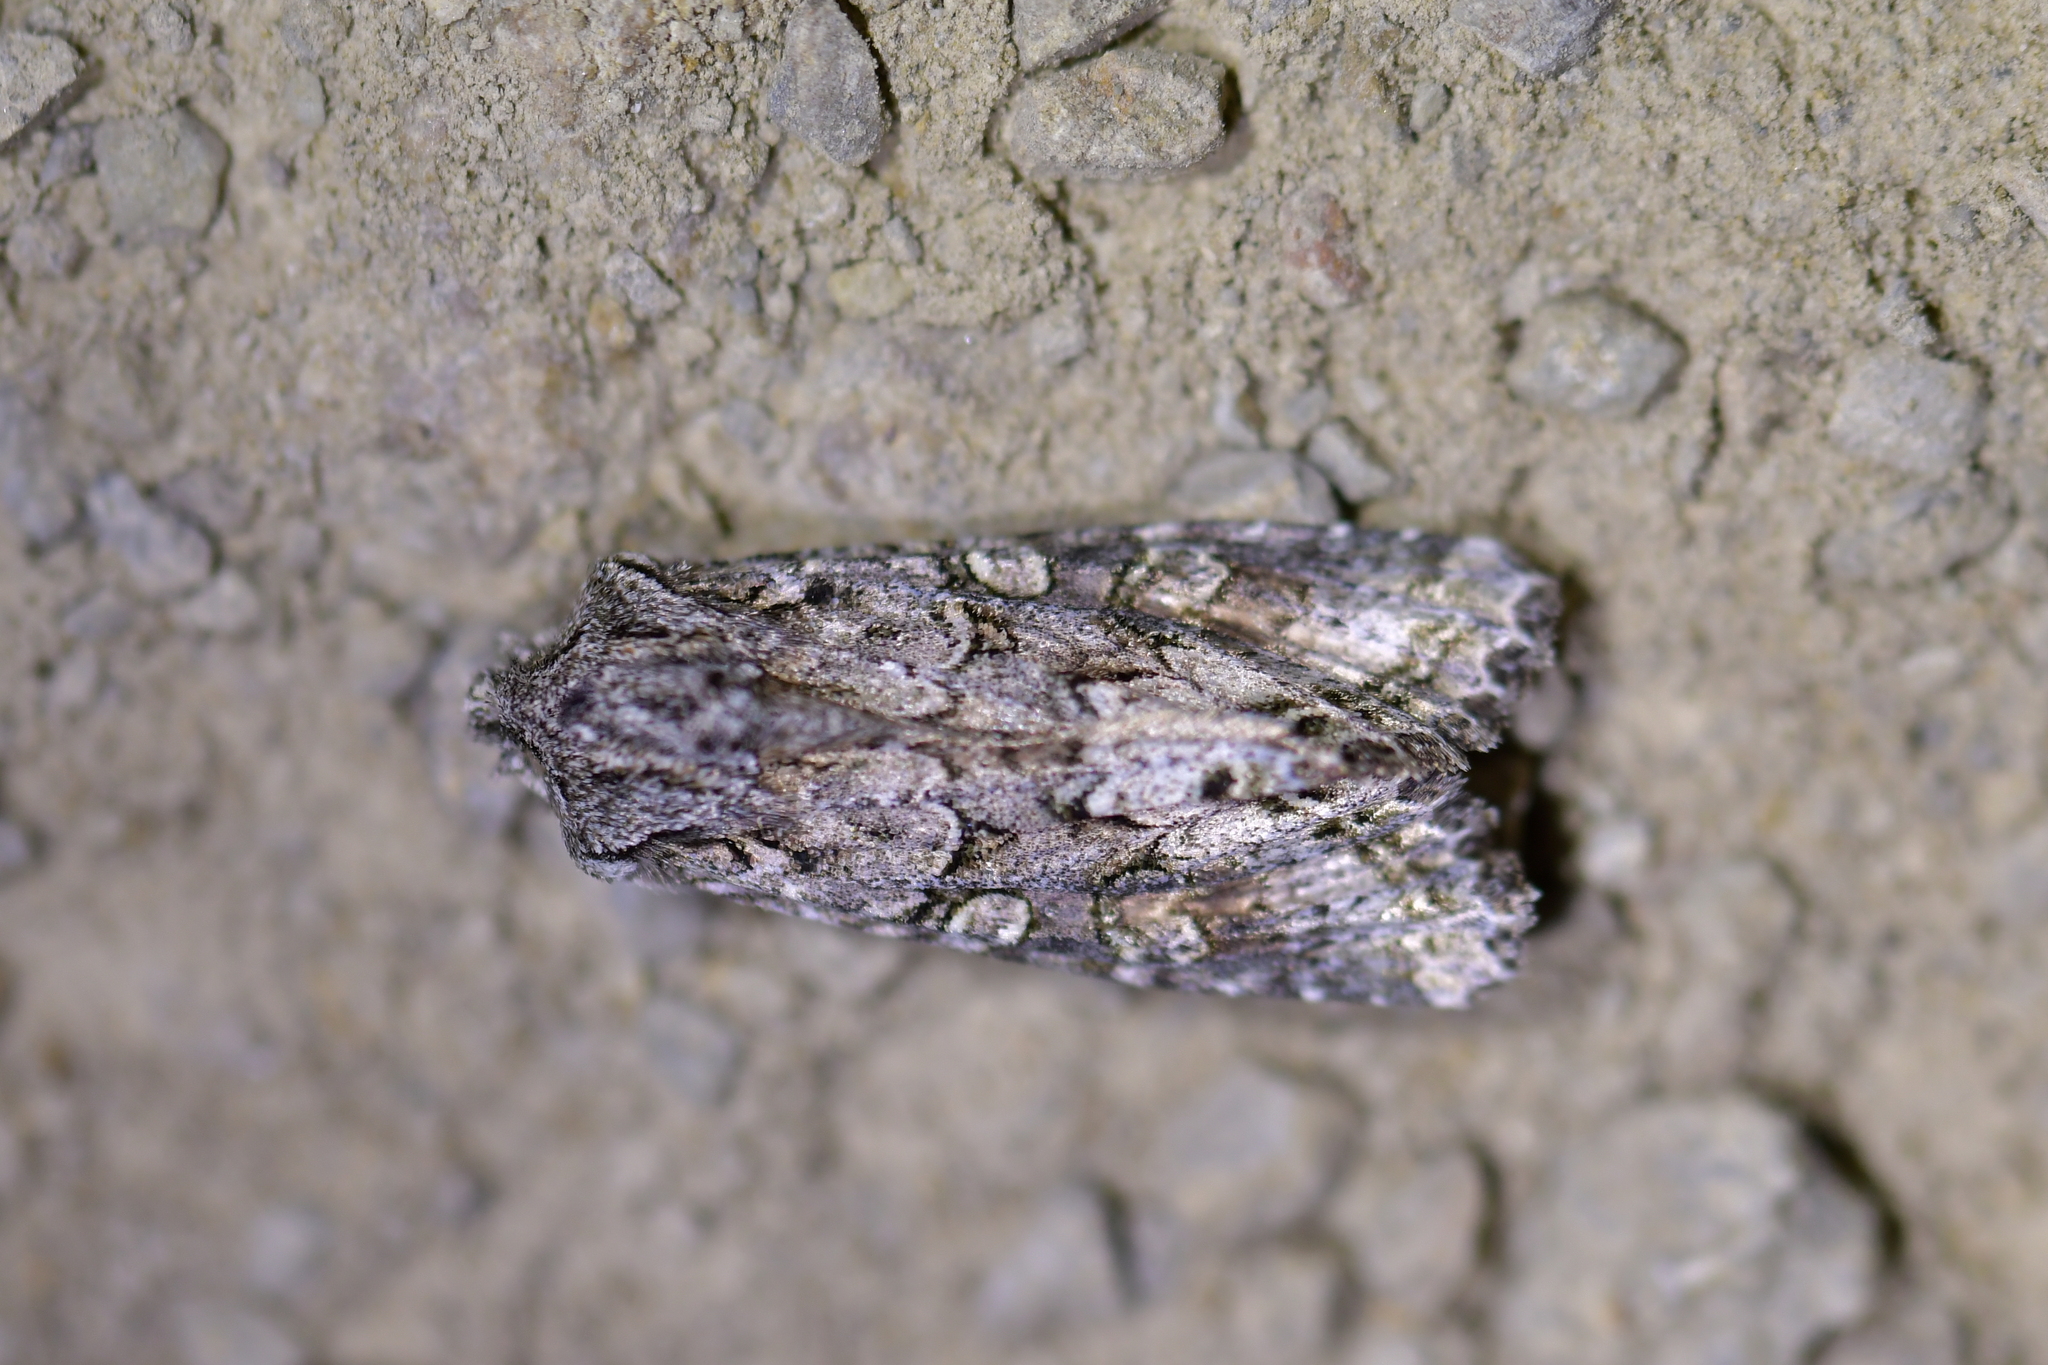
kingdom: Animalia
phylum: Arthropoda
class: Insecta
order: Lepidoptera
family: Noctuidae
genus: Ichneutica
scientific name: Ichneutica mutans
